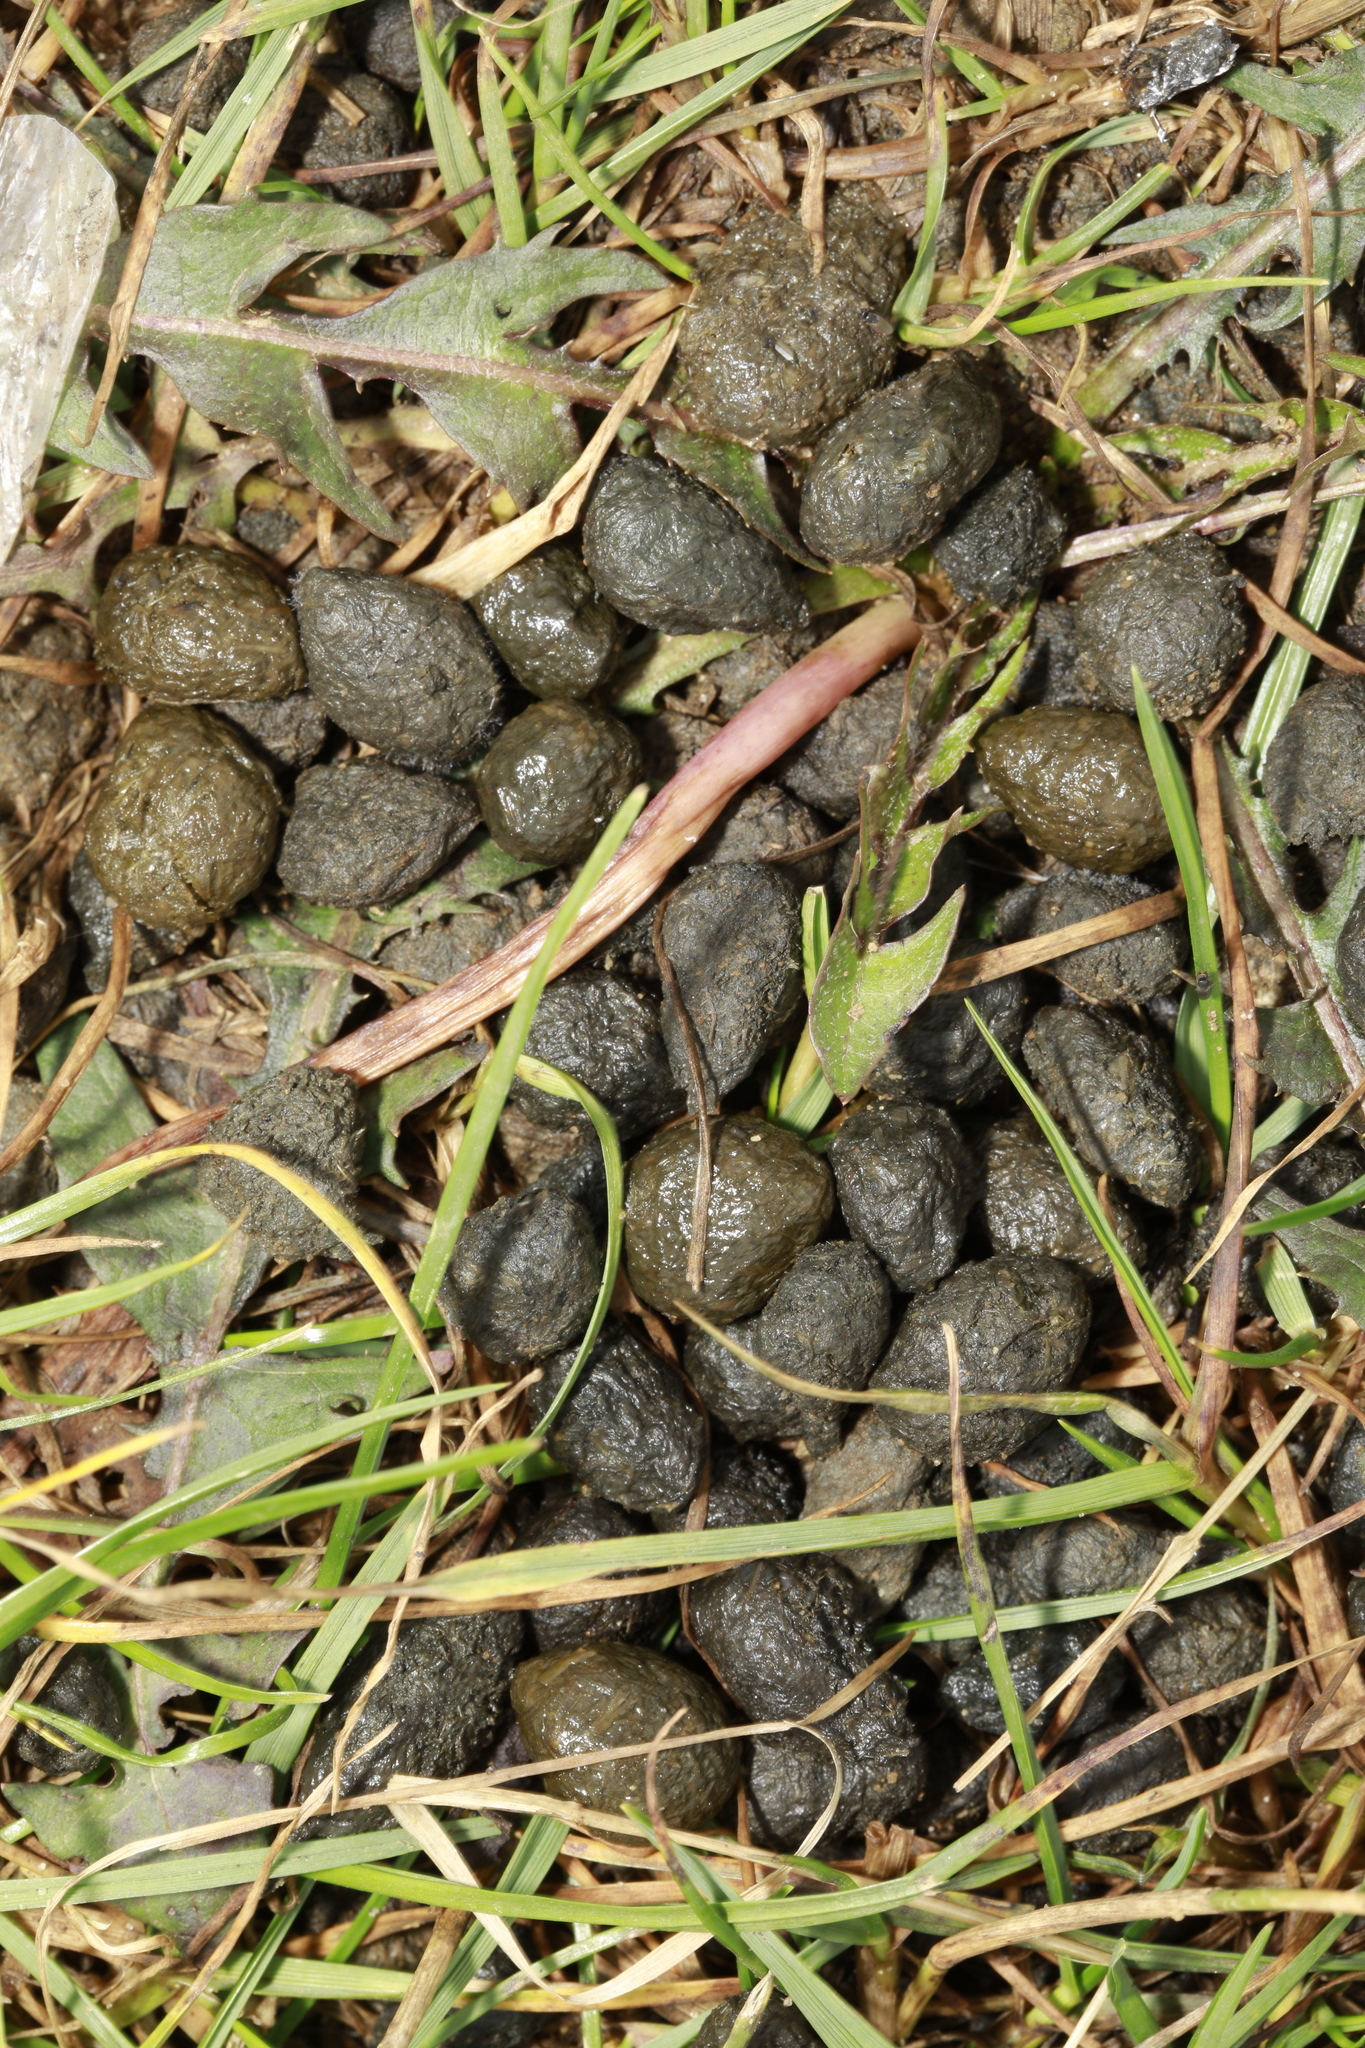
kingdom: Animalia
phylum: Chordata
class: Mammalia
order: Lagomorpha
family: Leporidae
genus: Oryctolagus
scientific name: Oryctolagus cuniculus
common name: European rabbit
